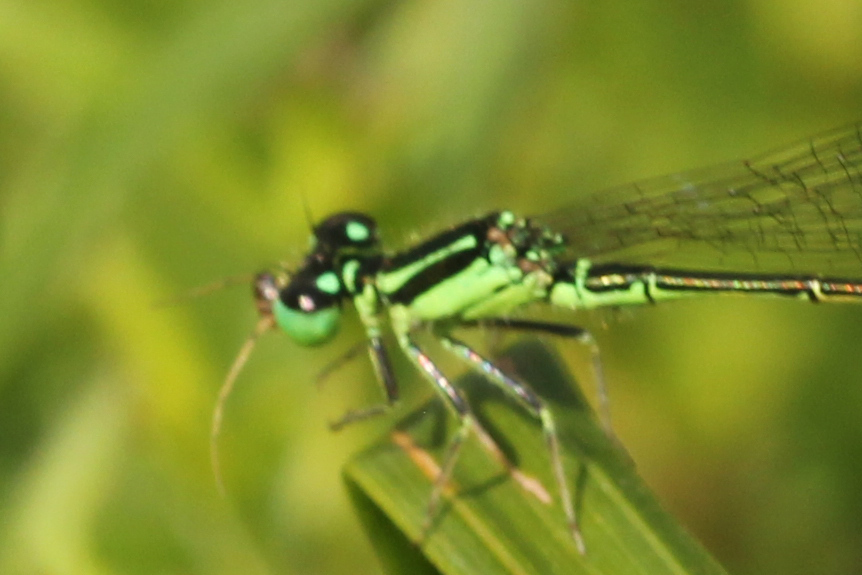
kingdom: Animalia
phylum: Arthropoda
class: Insecta
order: Odonata
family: Coenagrionidae
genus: Ischnura
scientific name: Ischnura verticalis
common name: Eastern forktail
